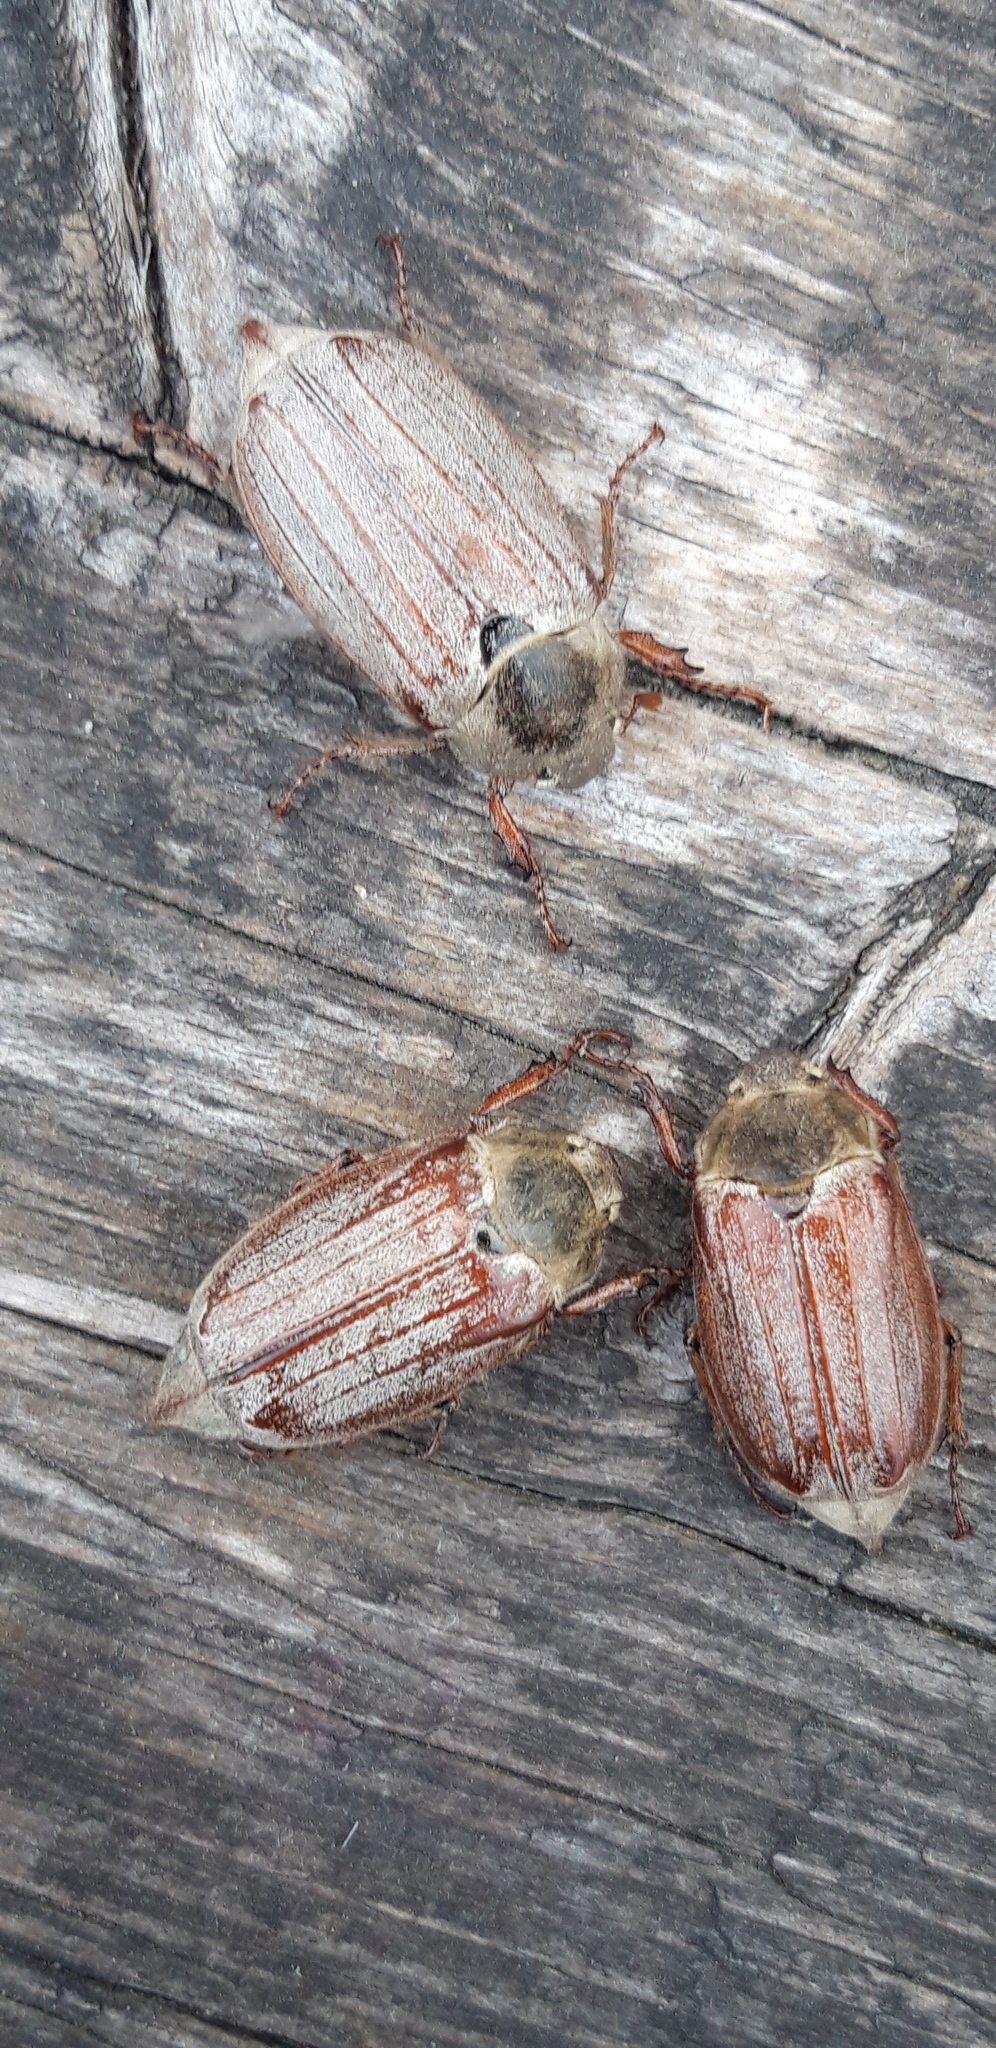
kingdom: Animalia
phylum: Arthropoda
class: Insecta
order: Coleoptera
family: Scarabaeidae
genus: Melolontha
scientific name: Melolontha melolontha
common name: Cockchafer maybeetle
